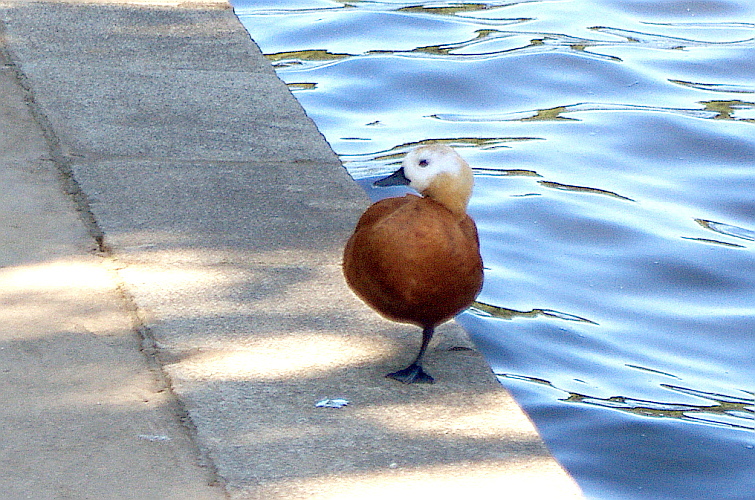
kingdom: Animalia
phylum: Chordata
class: Aves
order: Anseriformes
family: Anatidae
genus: Tadorna
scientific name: Tadorna ferruginea
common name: Ruddy shelduck
